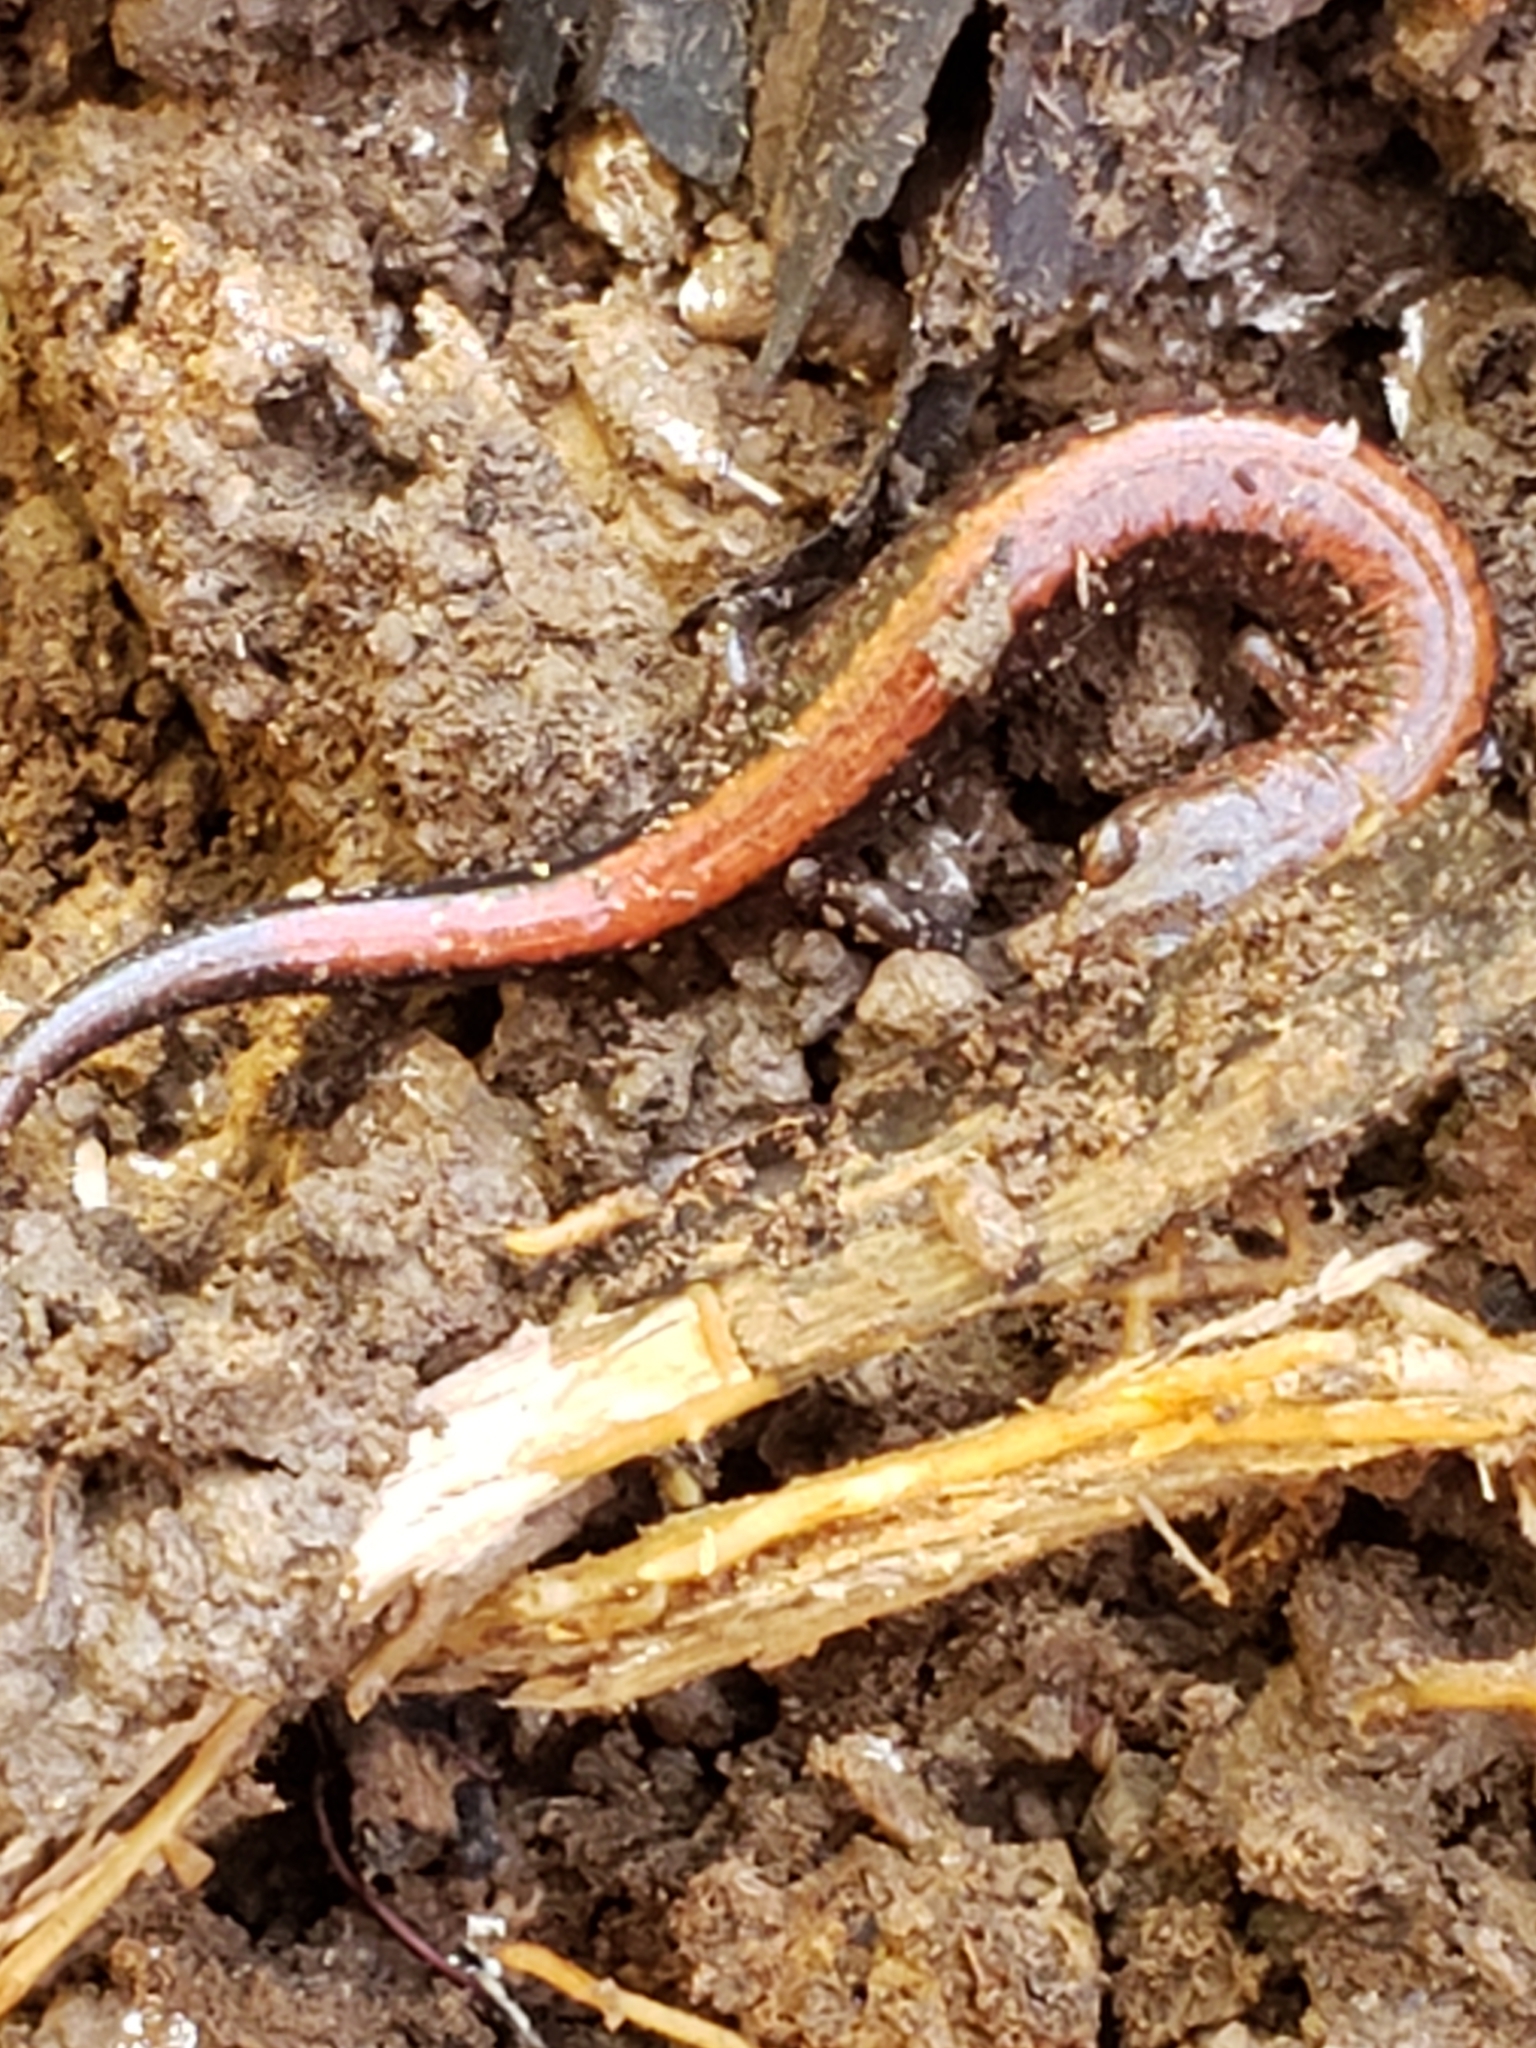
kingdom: Animalia
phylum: Chordata
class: Amphibia
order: Caudata
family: Plethodontidae
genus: Plethodon
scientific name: Plethodon cinereus
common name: Redback salamander
